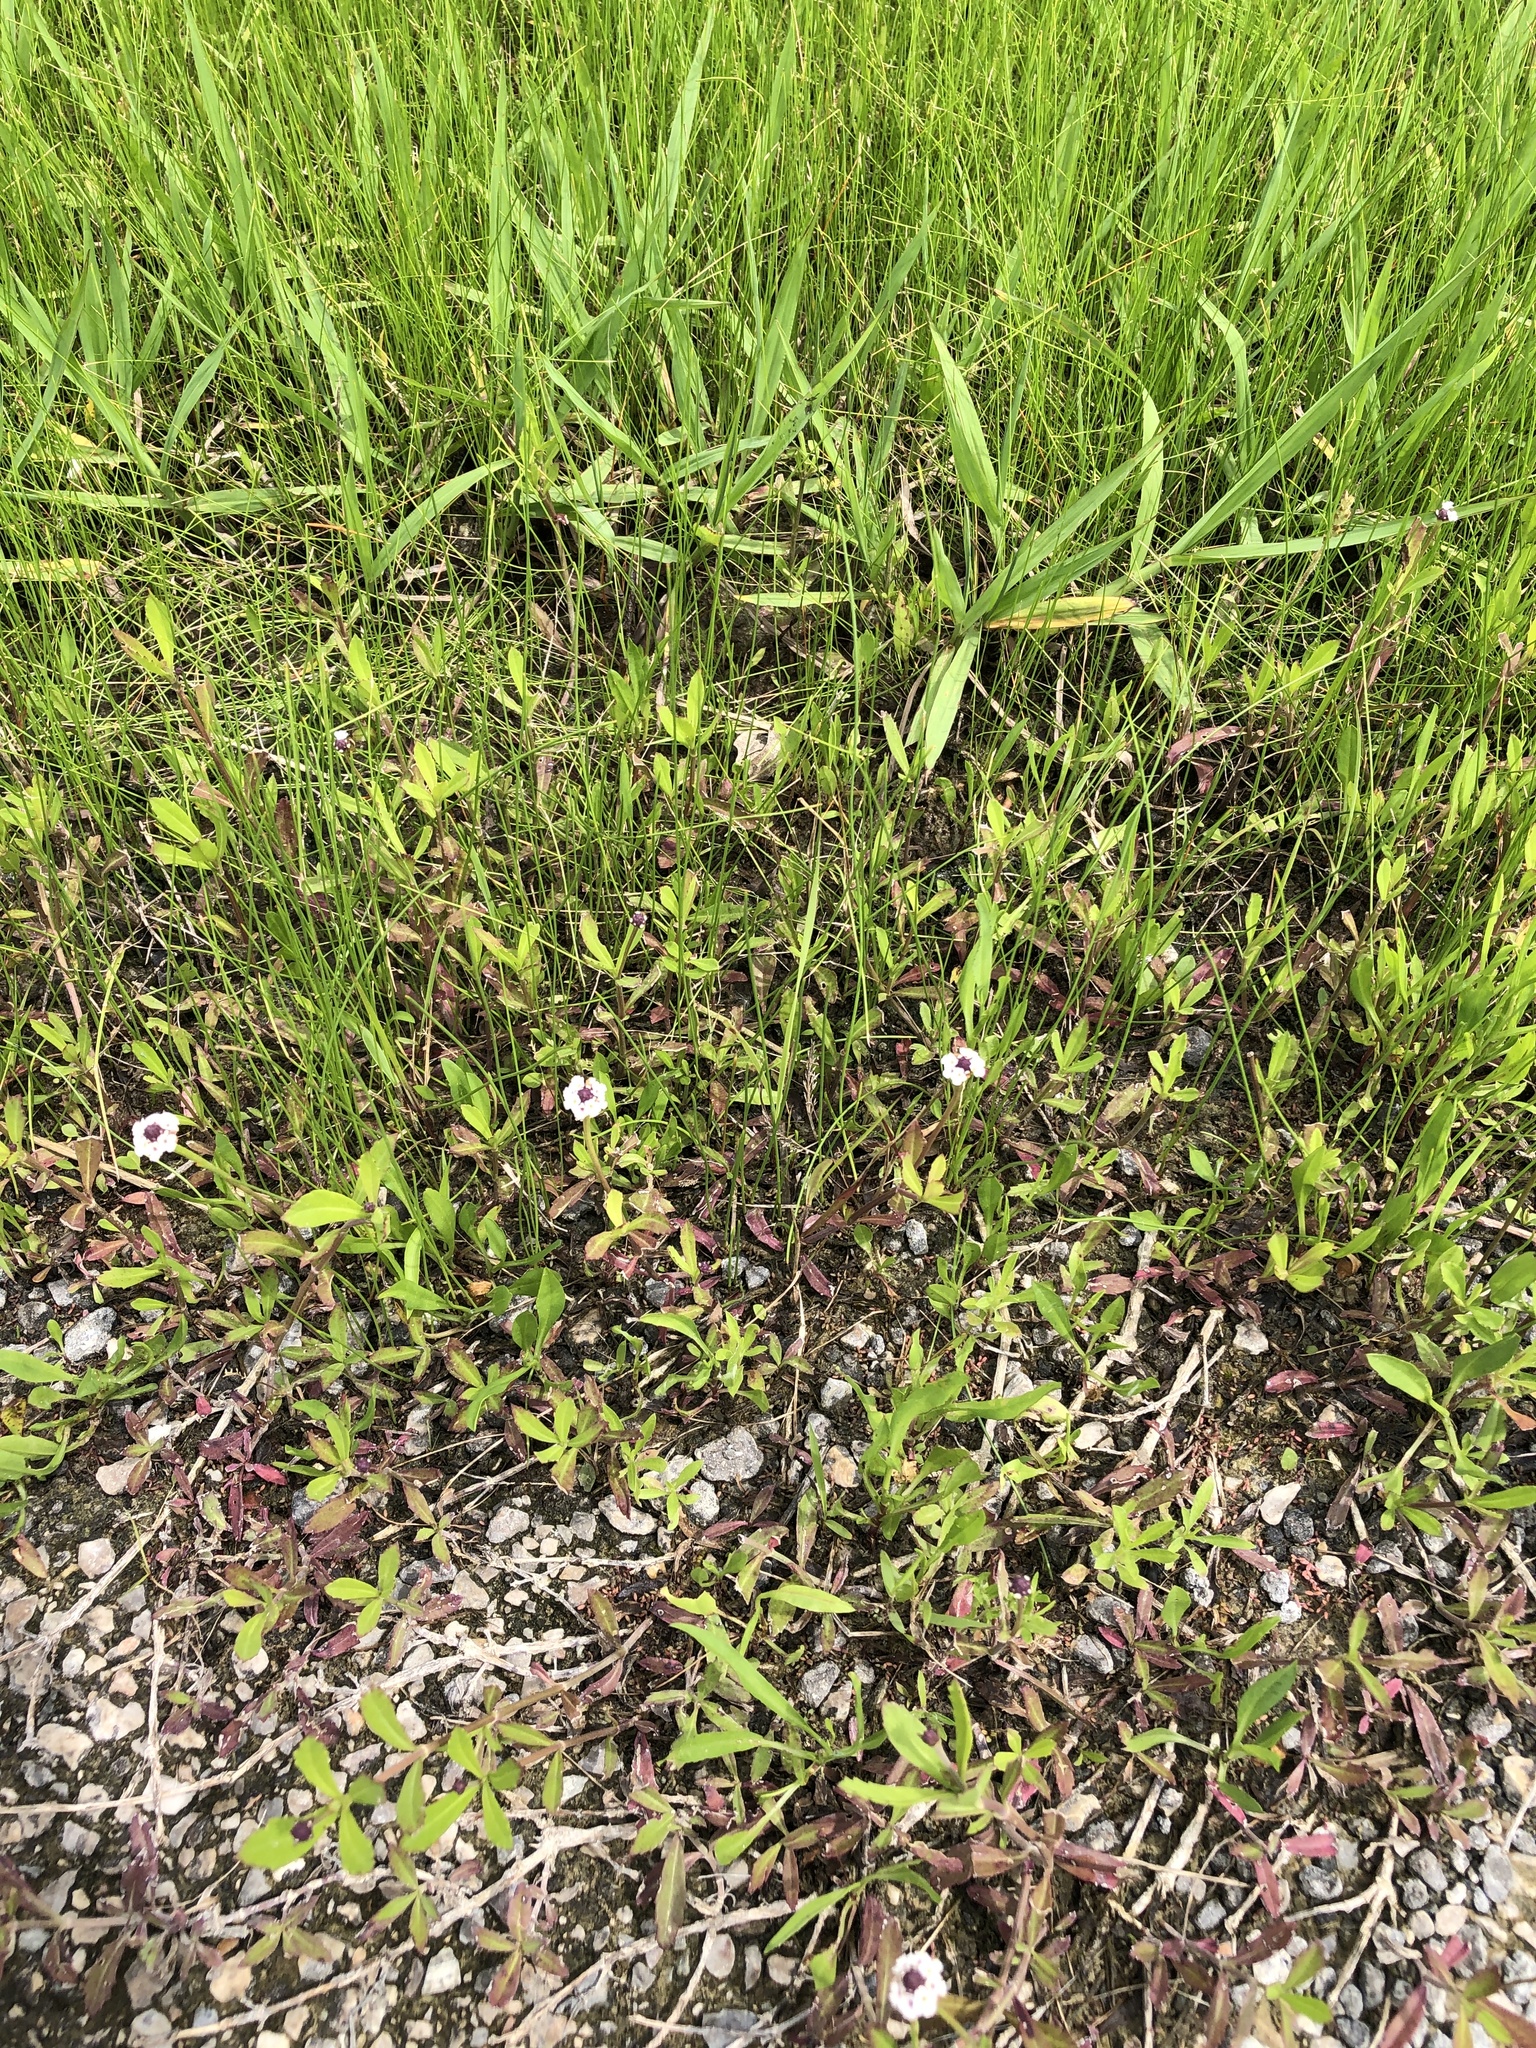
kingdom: Plantae
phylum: Tracheophyta
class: Magnoliopsida
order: Lamiales
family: Verbenaceae
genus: Phyla
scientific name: Phyla nodiflora
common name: Frogfruit
